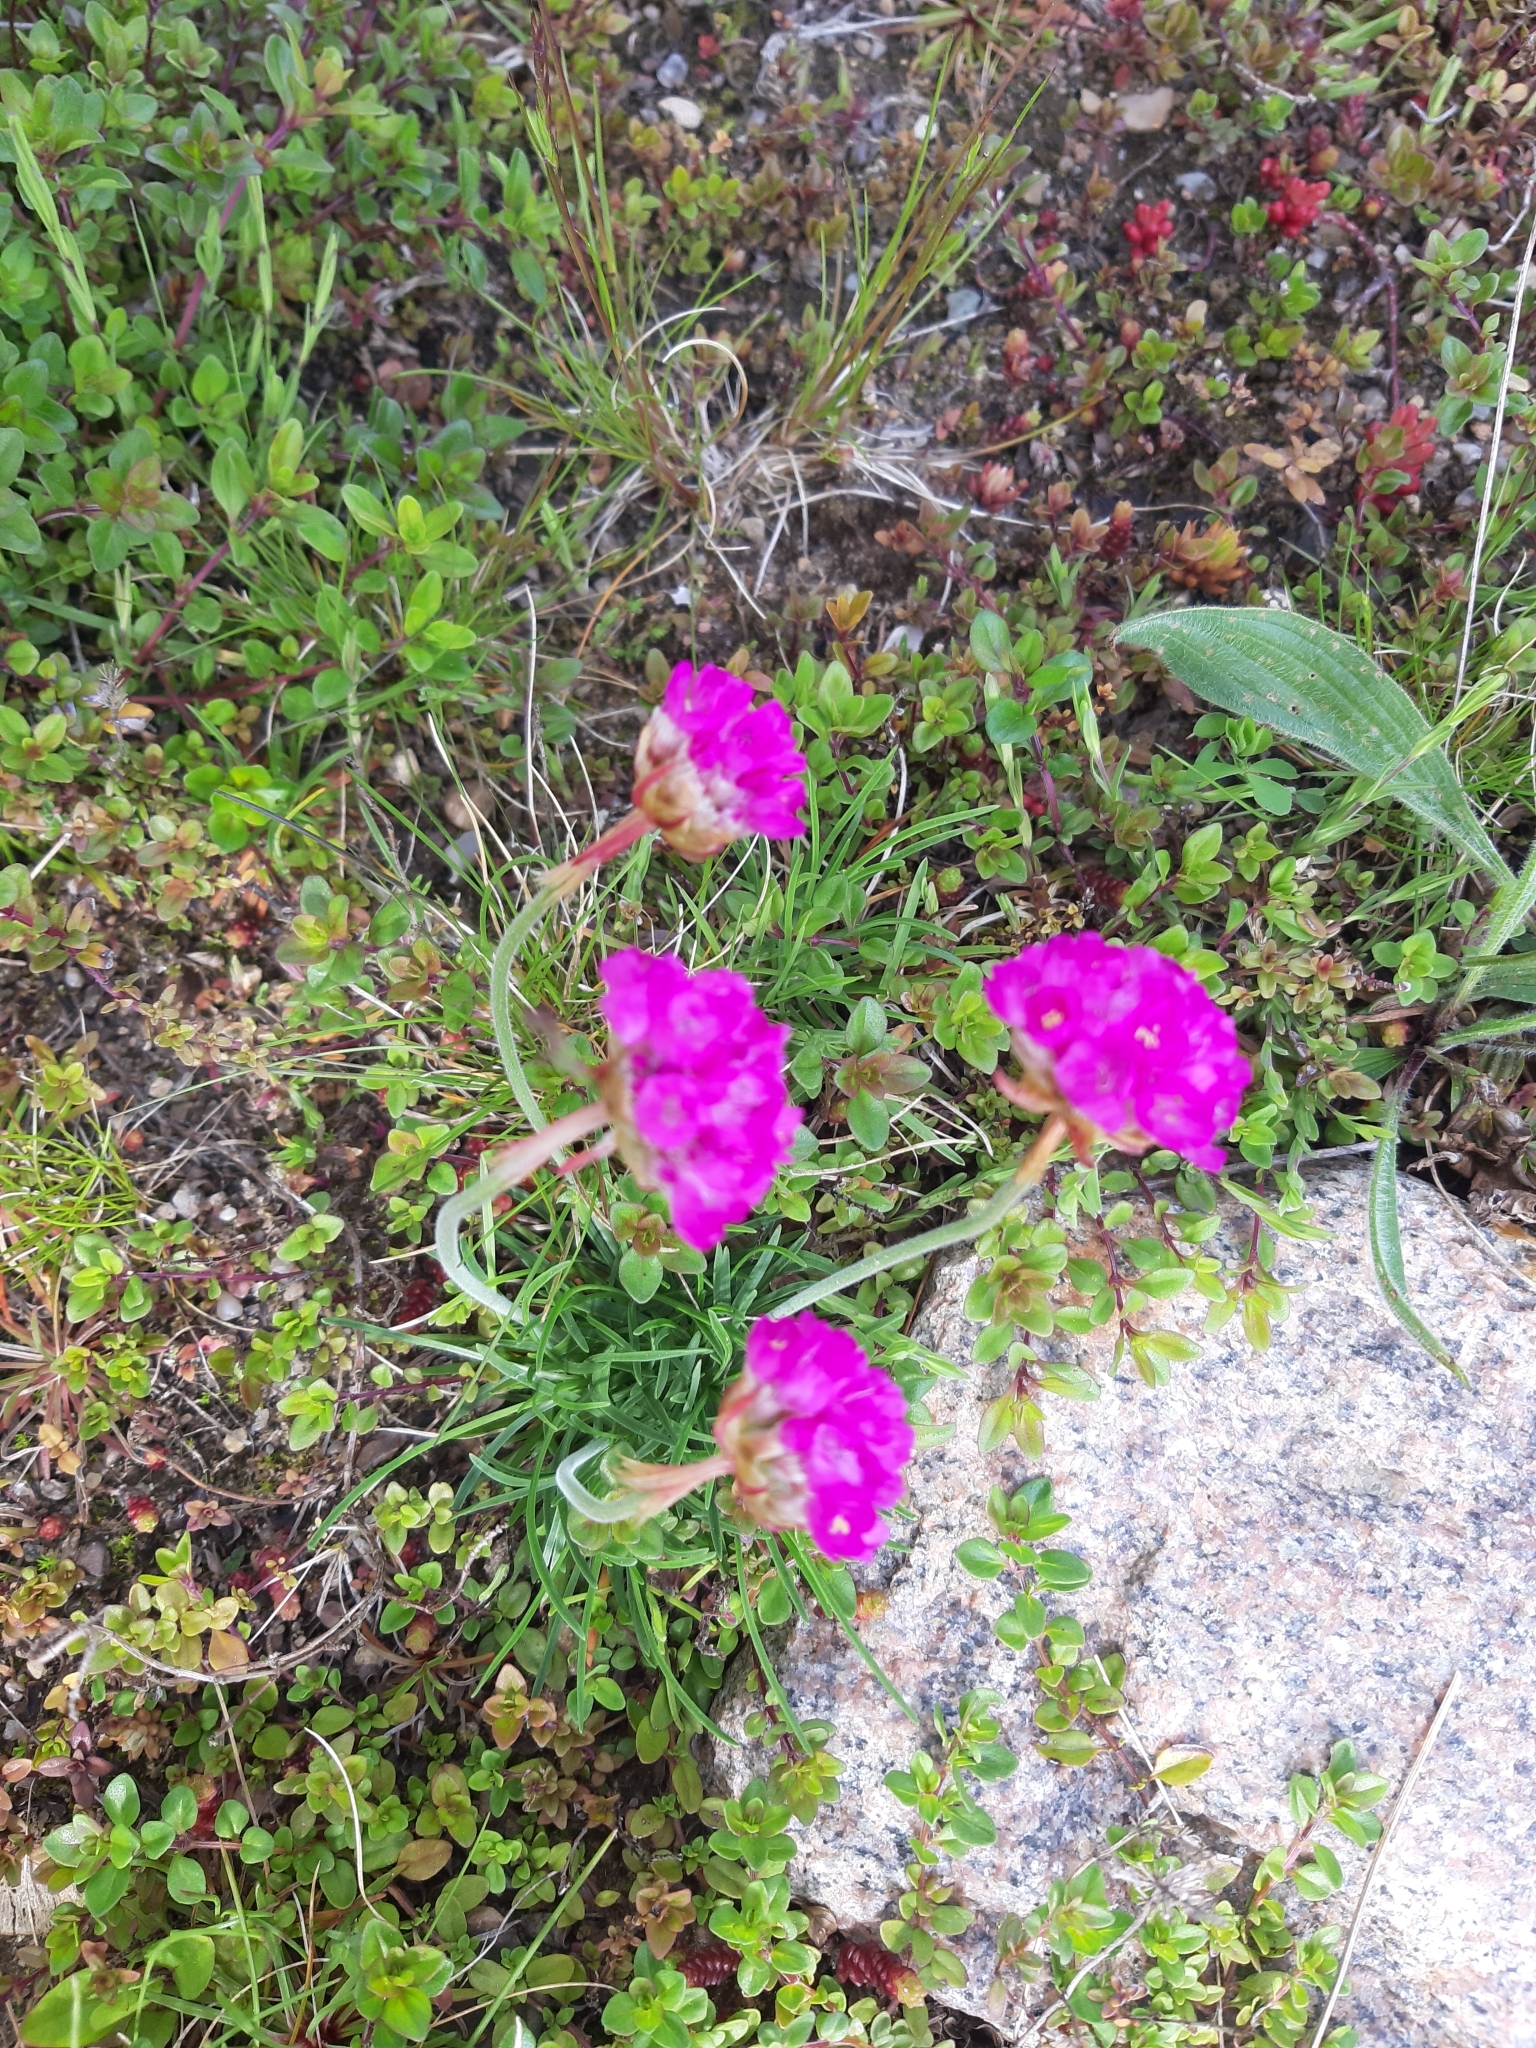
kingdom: Plantae
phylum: Tracheophyta
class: Magnoliopsida
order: Caryophyllales
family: Plumbaginaceae
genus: Armeria
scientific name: Armeria maritima
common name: Thrift
